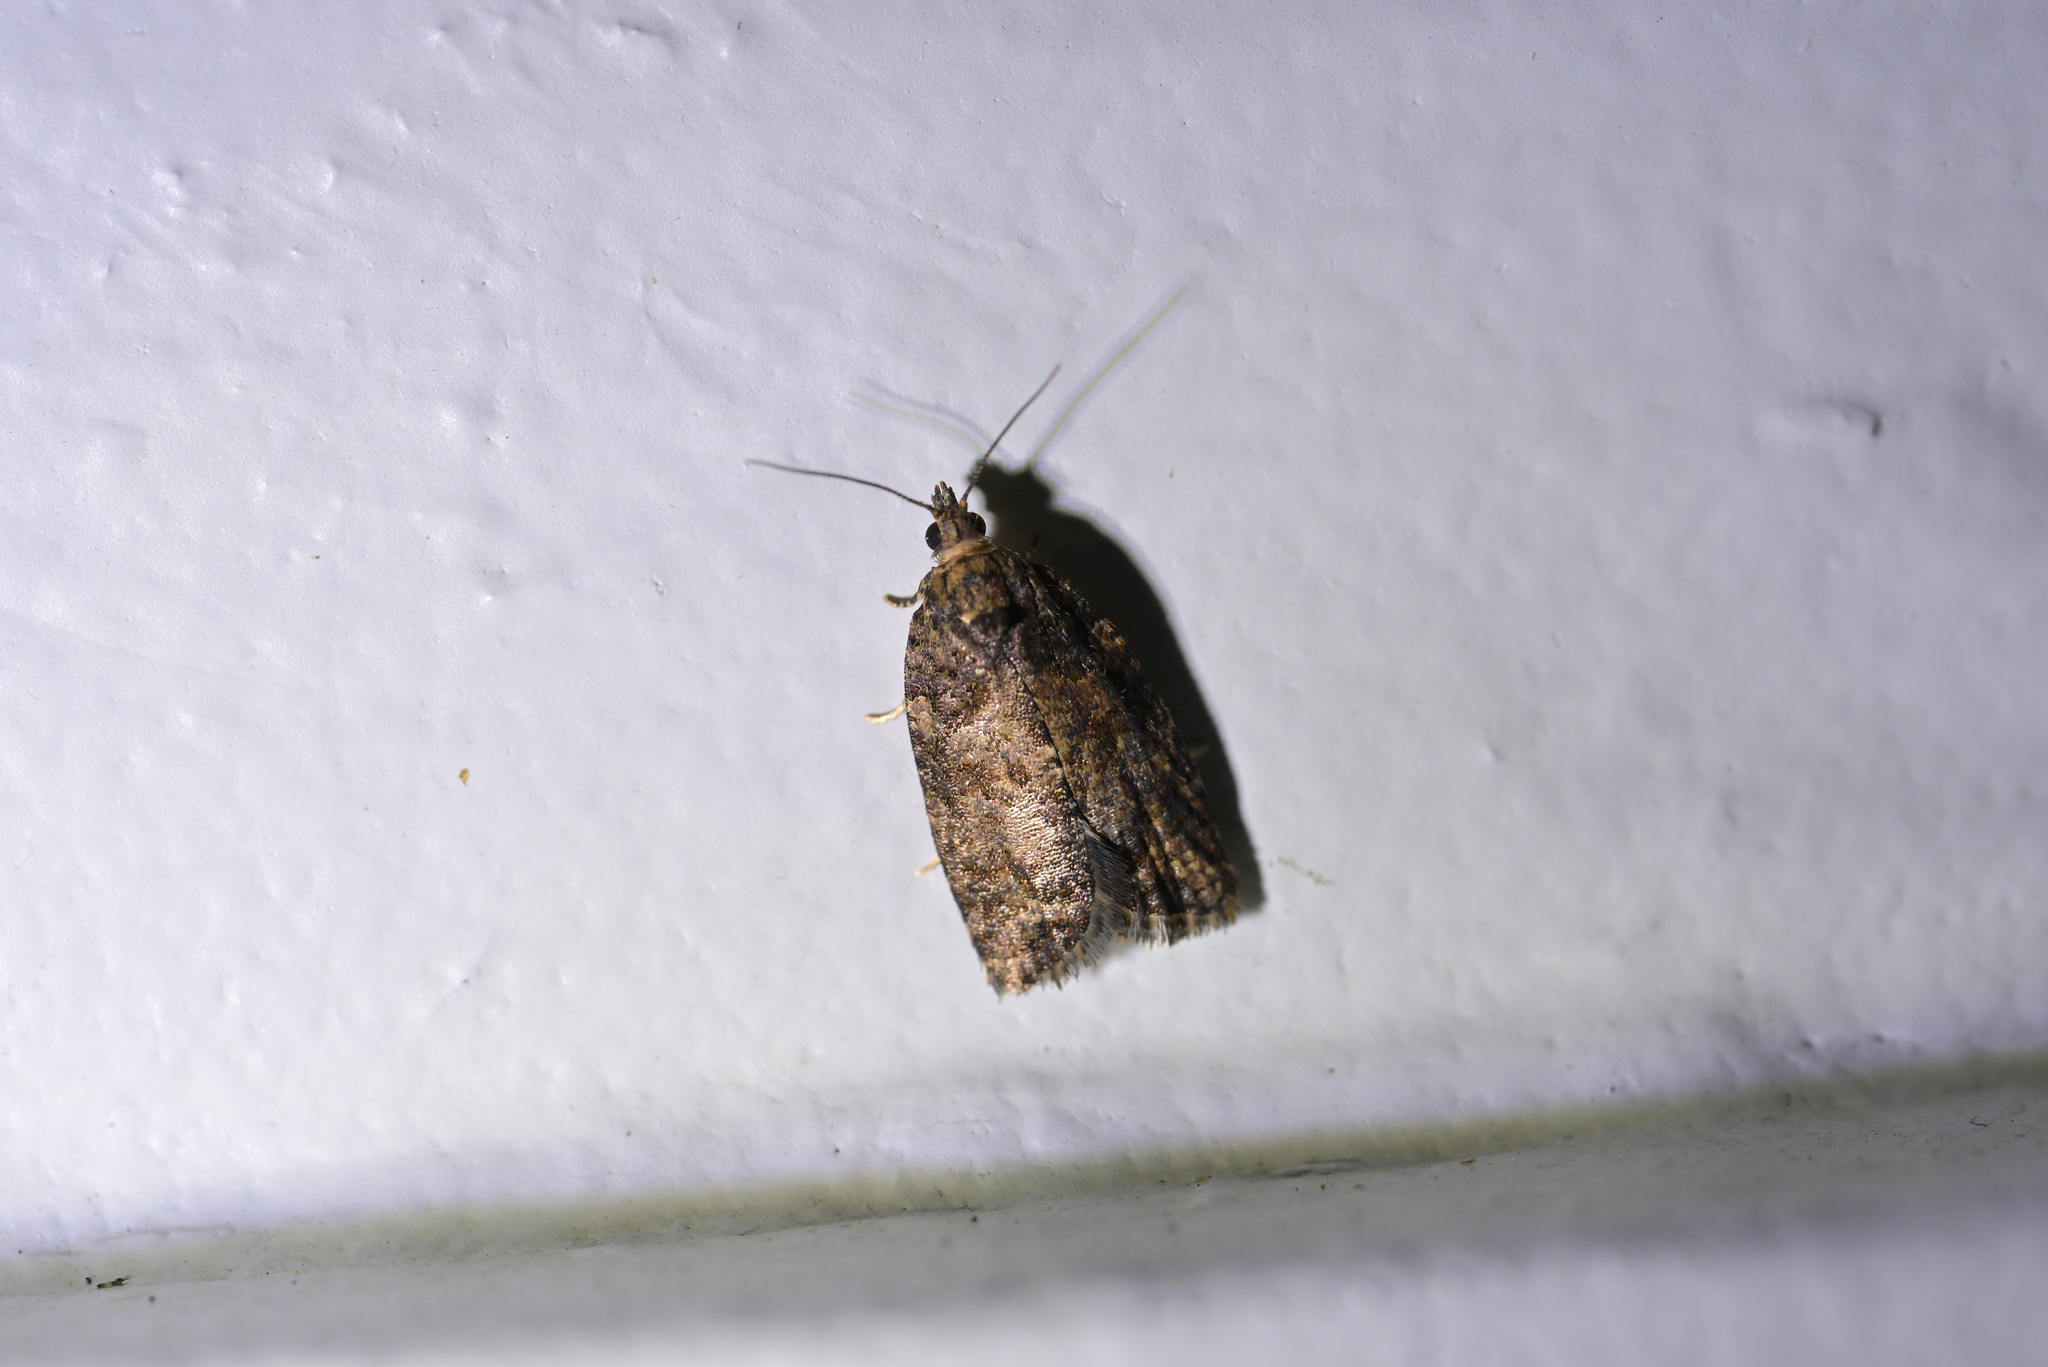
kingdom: Animalia
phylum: Arthropoda
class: Insecta
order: Lepidoptera
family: Tortricidae
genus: Capua
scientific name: Capua intractana
